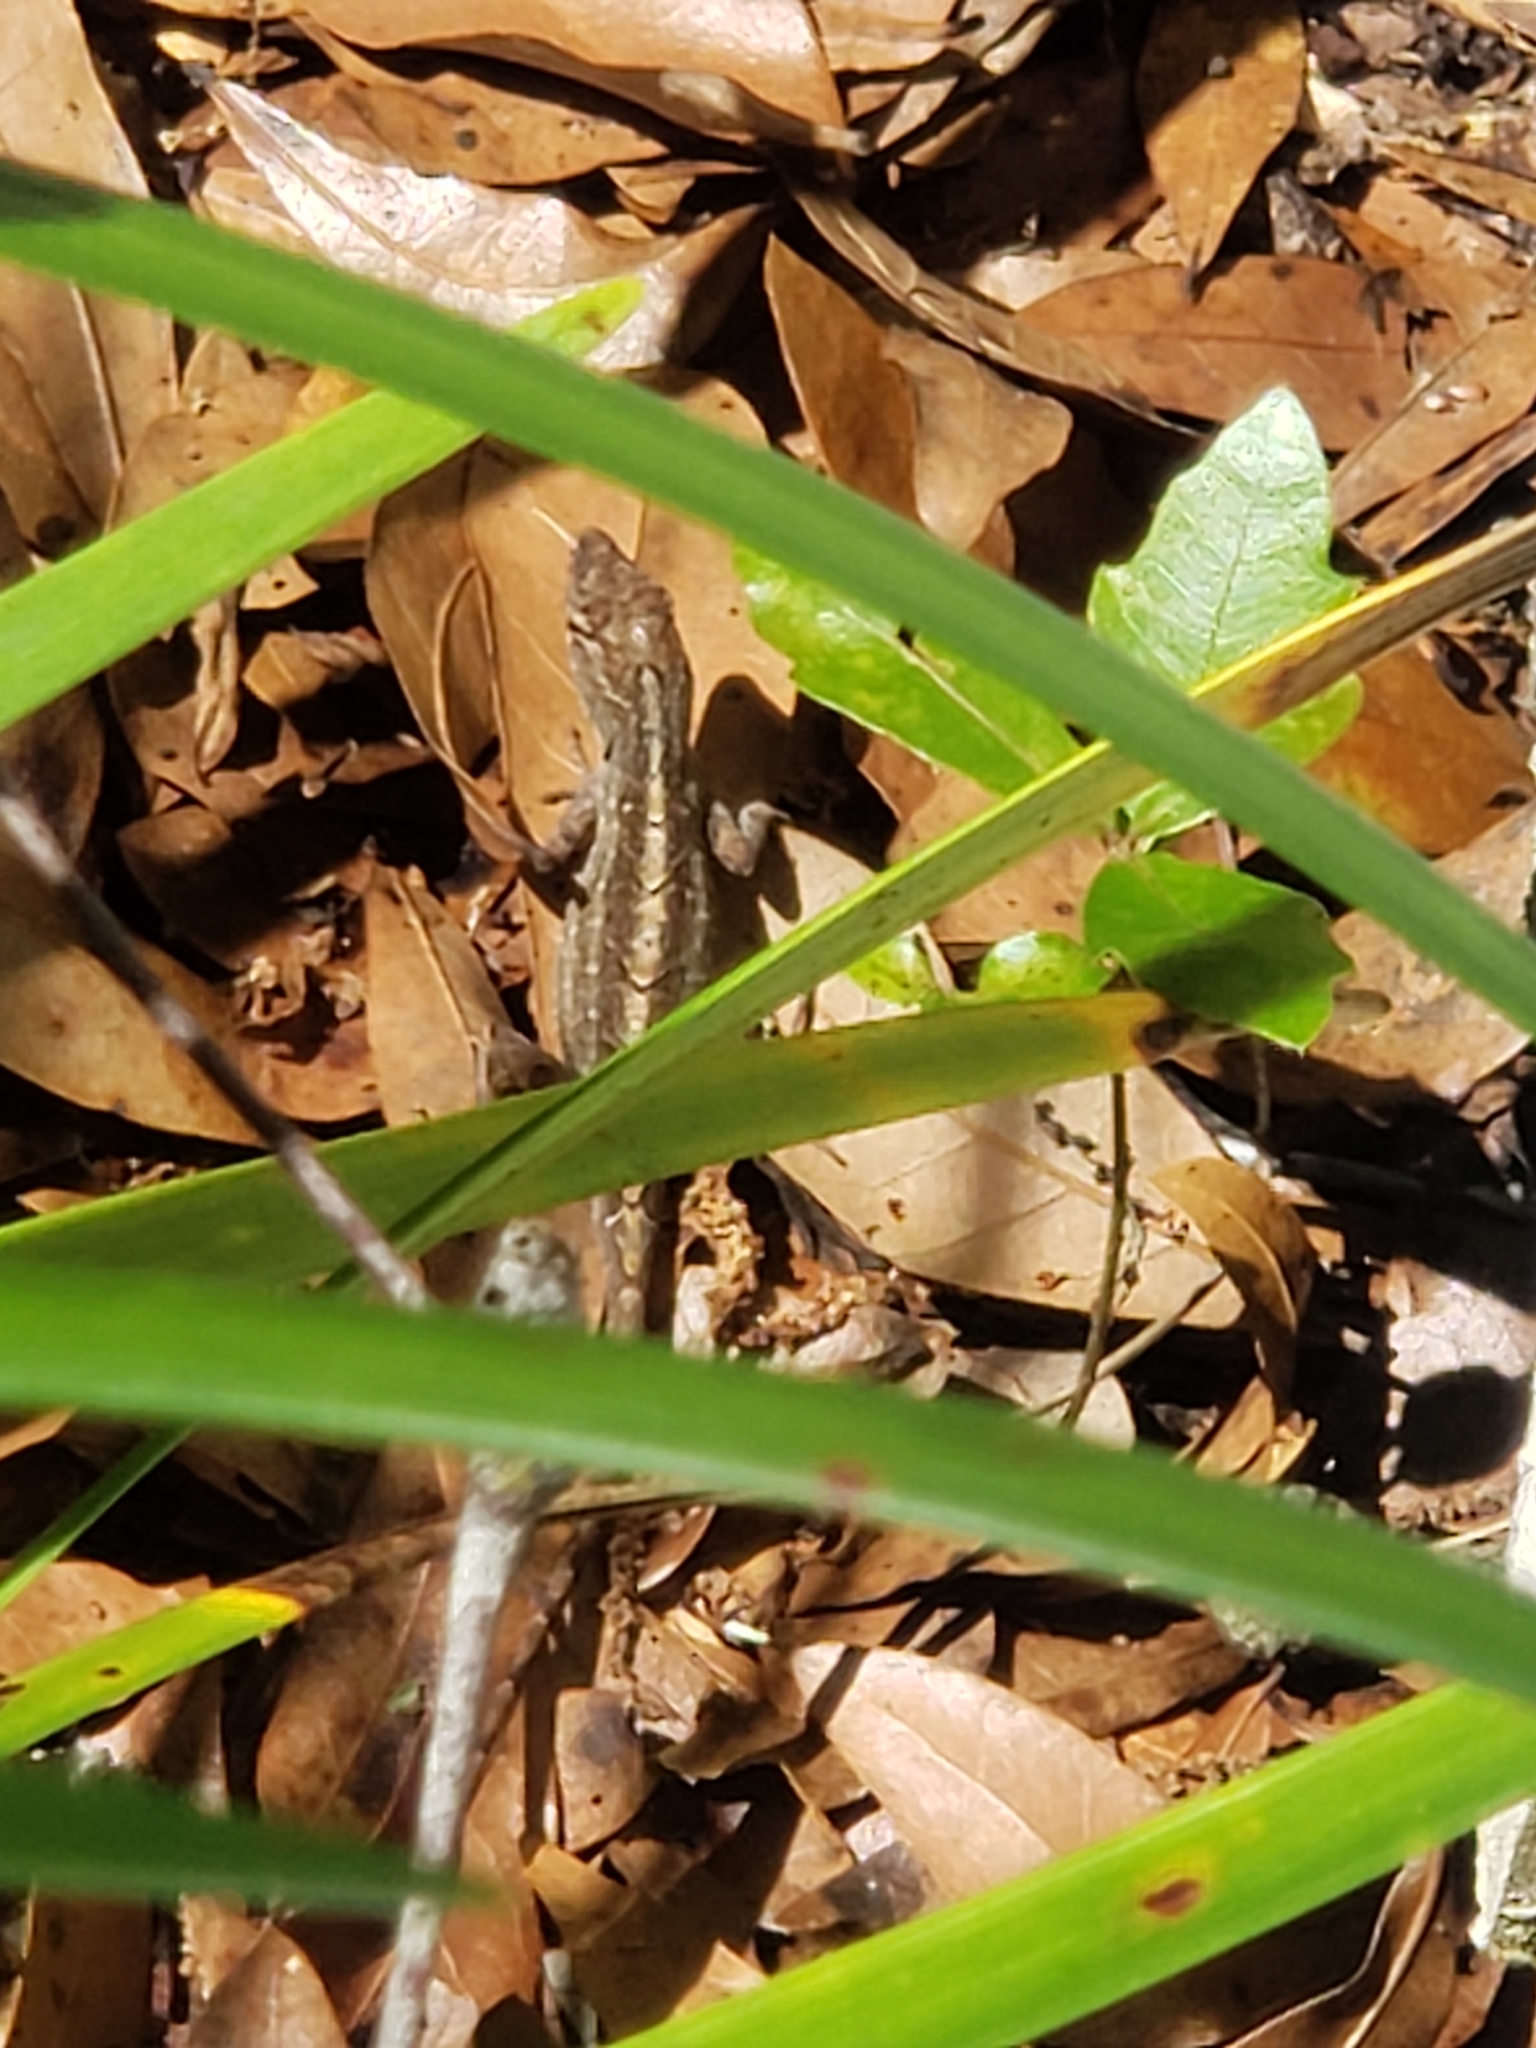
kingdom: Animalia
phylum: Chordata
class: Squamata
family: Dactyloidae
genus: Anolis
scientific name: Anolis sagrei
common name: Brown anole
